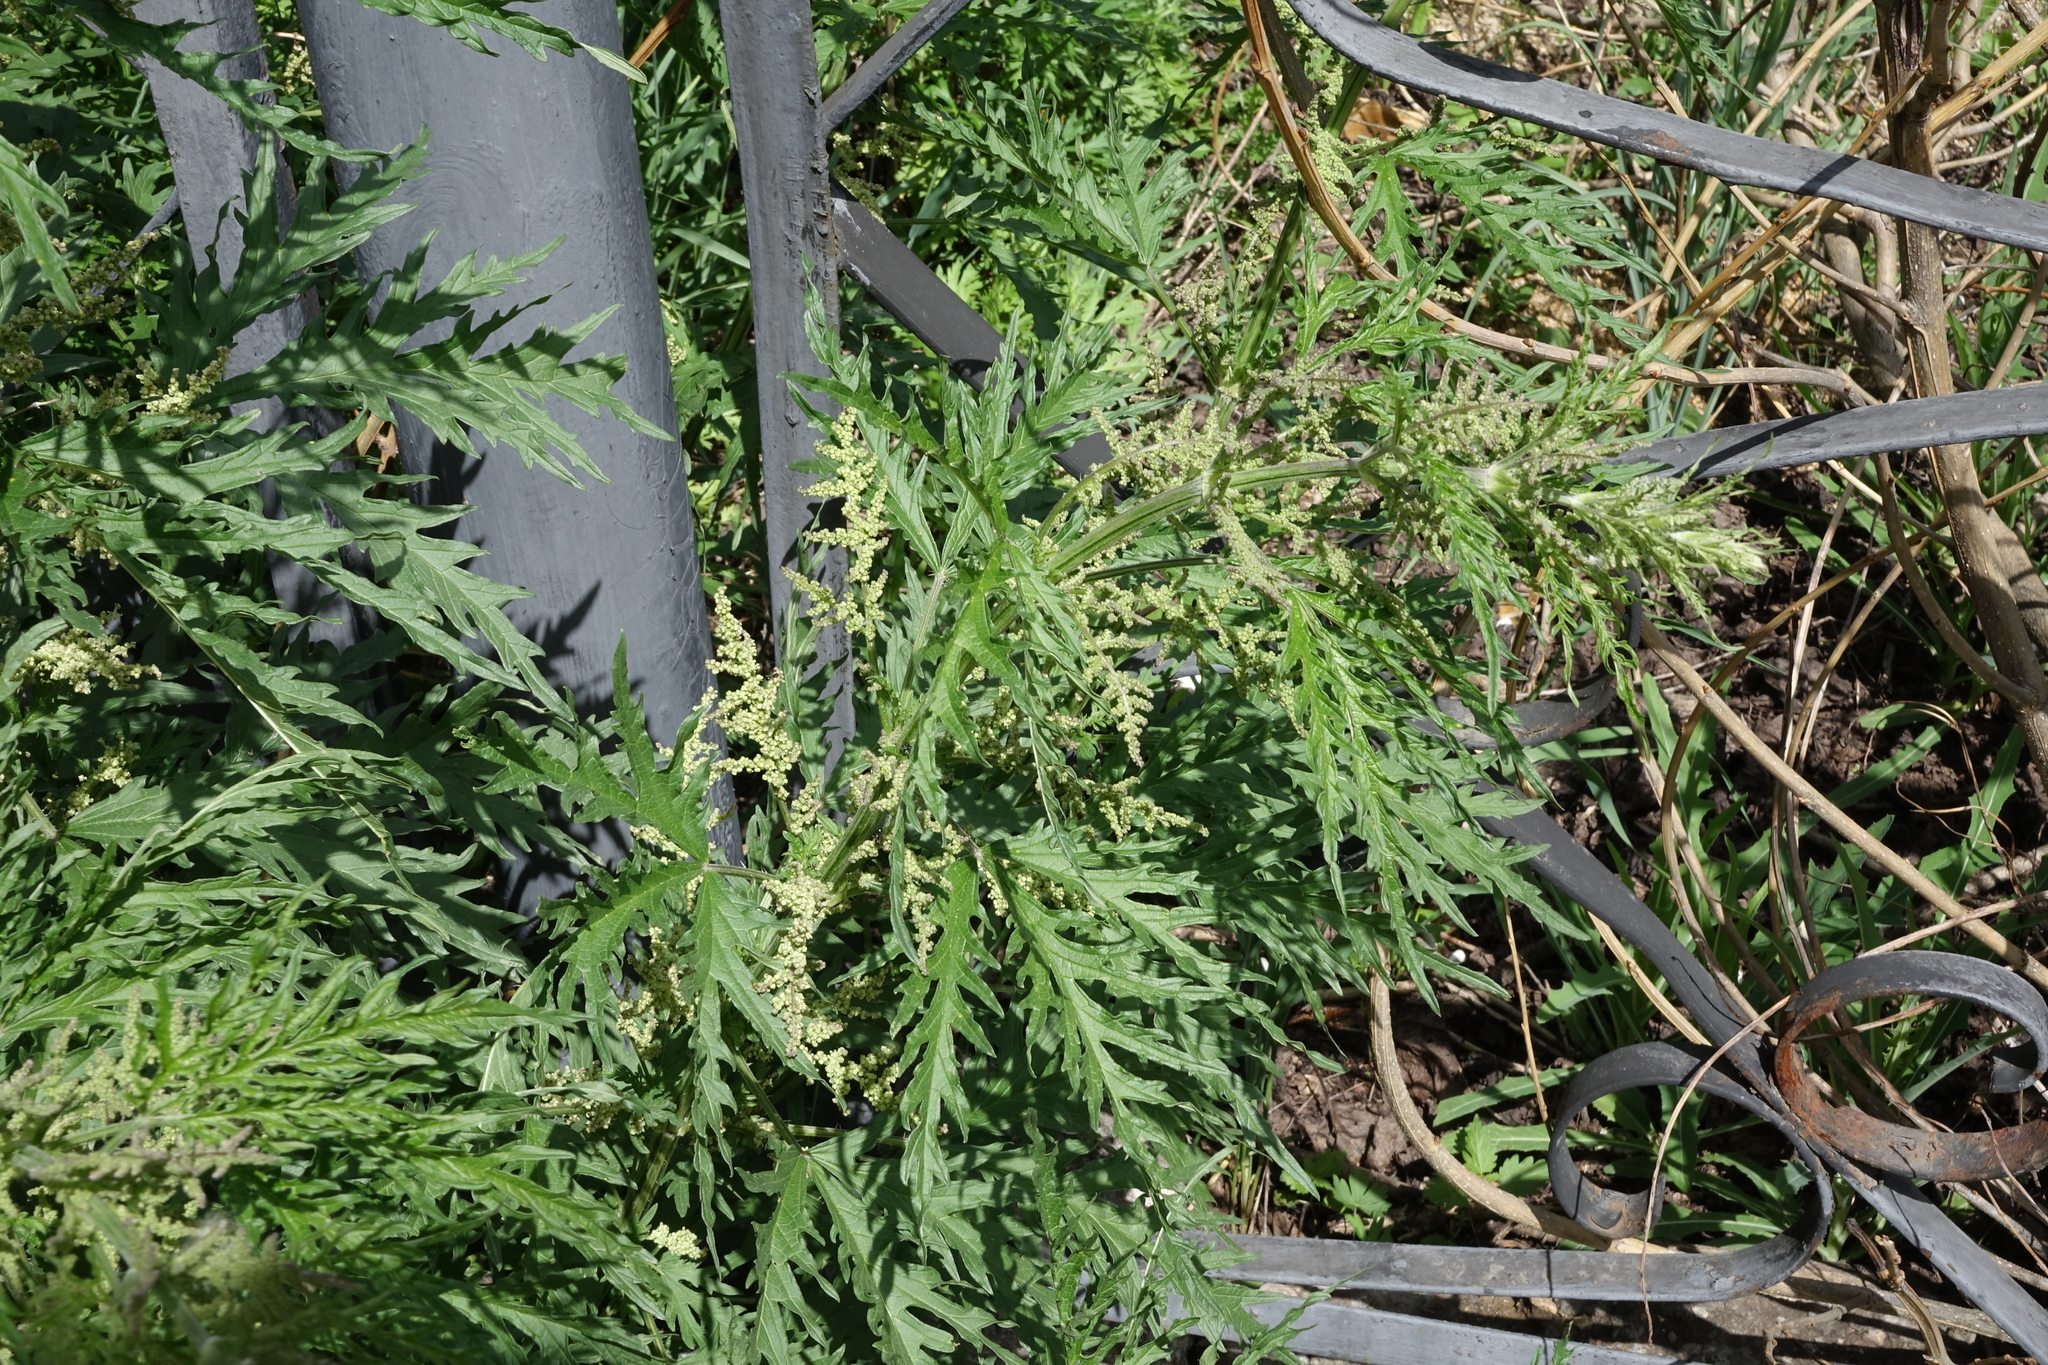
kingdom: Plantae
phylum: Tracheophyta
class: Magnoliopsida
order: Rosales
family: Urticaceae
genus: Urtica
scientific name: Urtica cannabina
